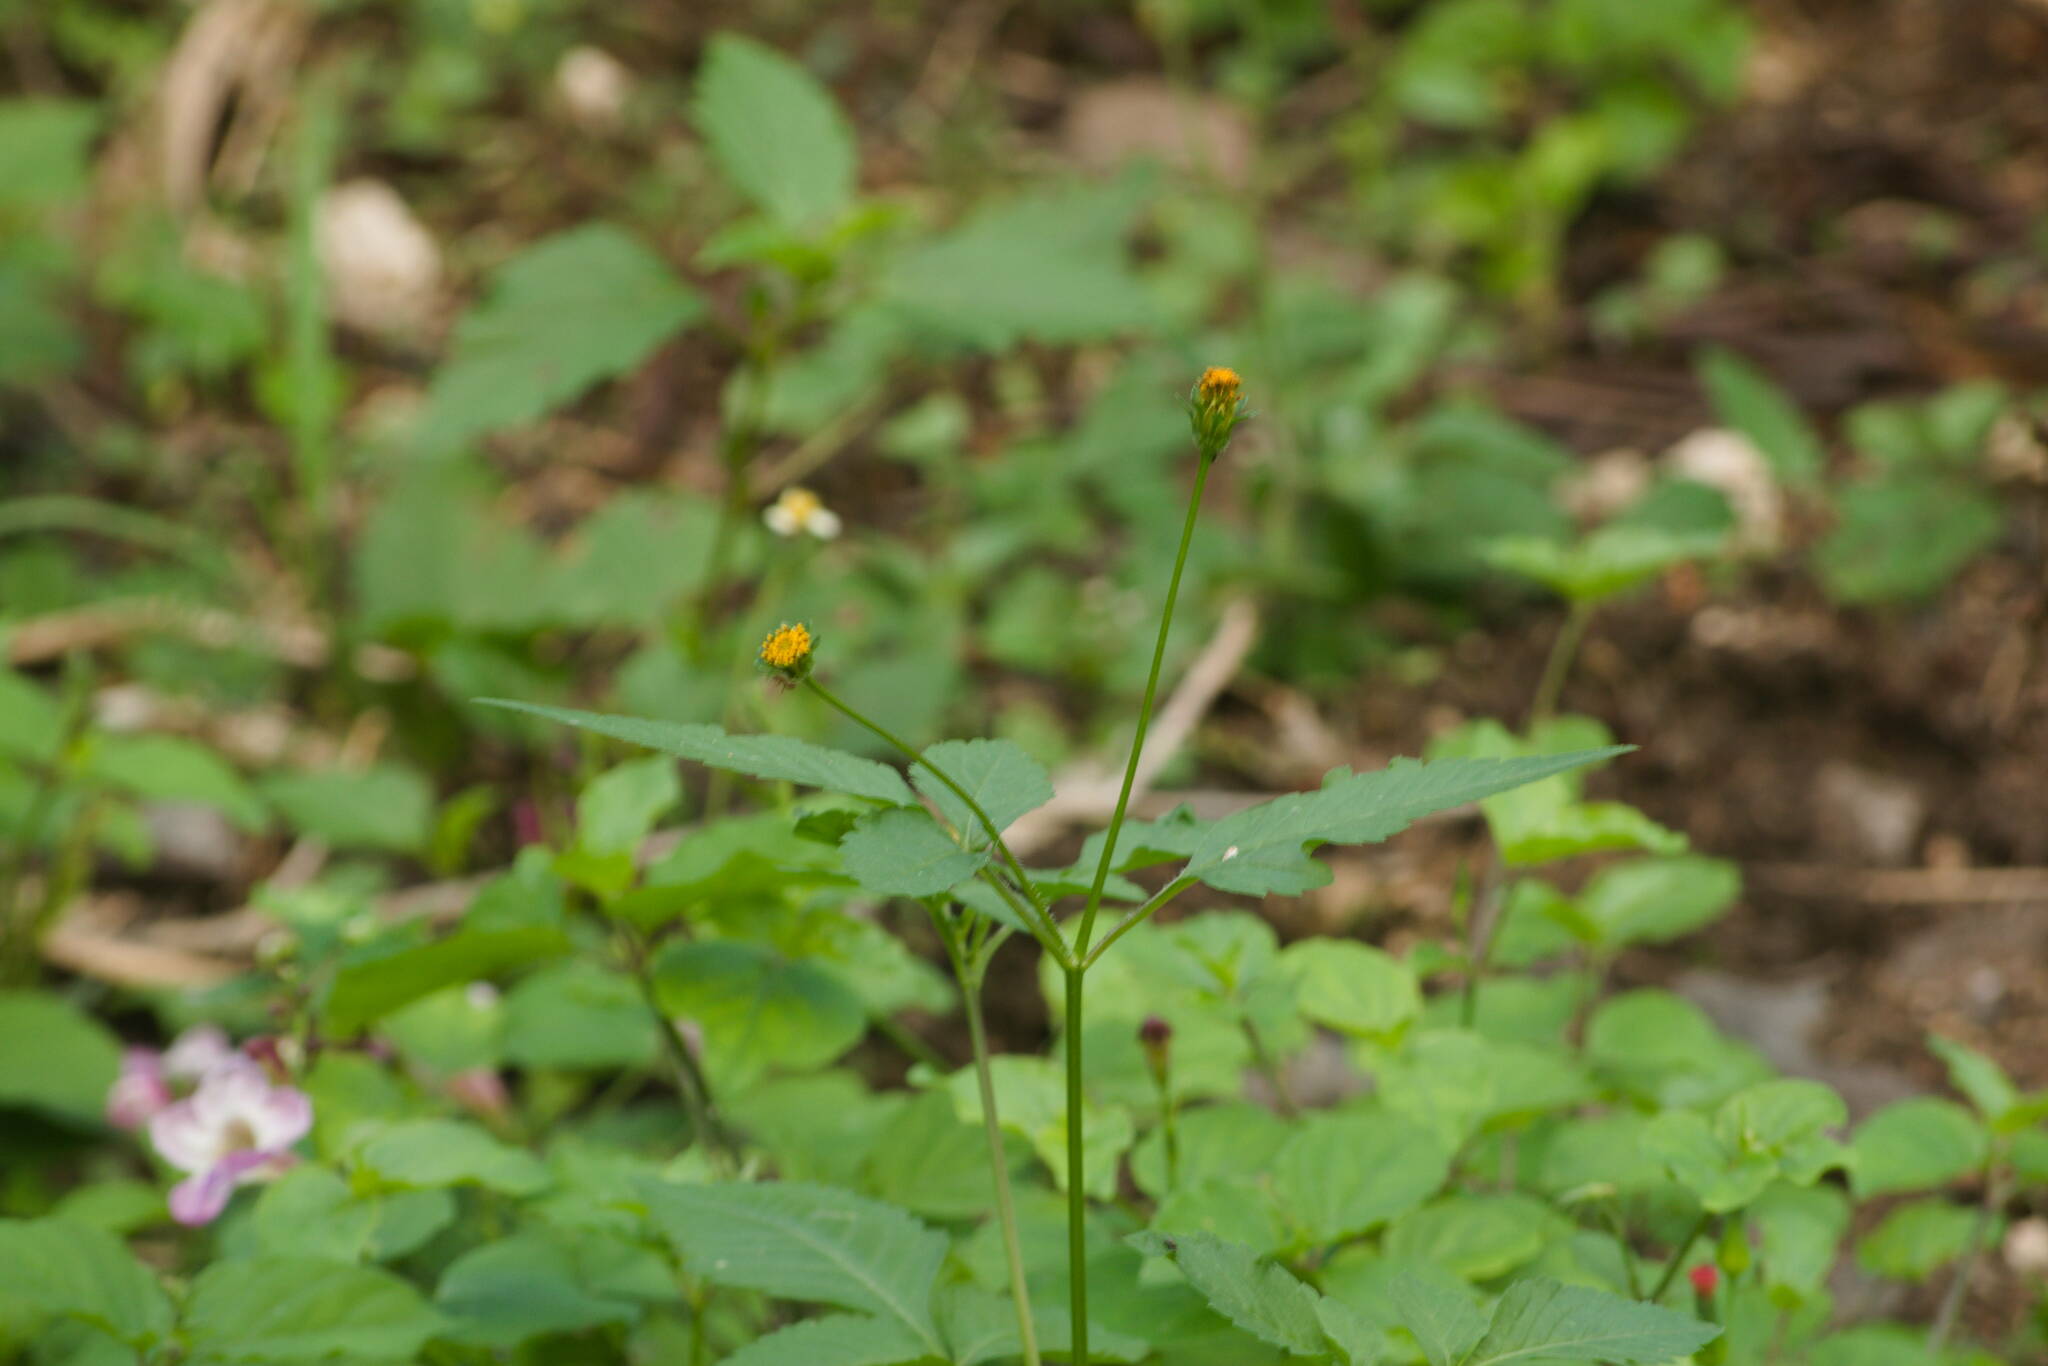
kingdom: Plantae
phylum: Tracheophyta
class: Magnoliopsida
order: Asterales
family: Asteraceae
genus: Bidens
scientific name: Bidens pilosa
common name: Black-jack
